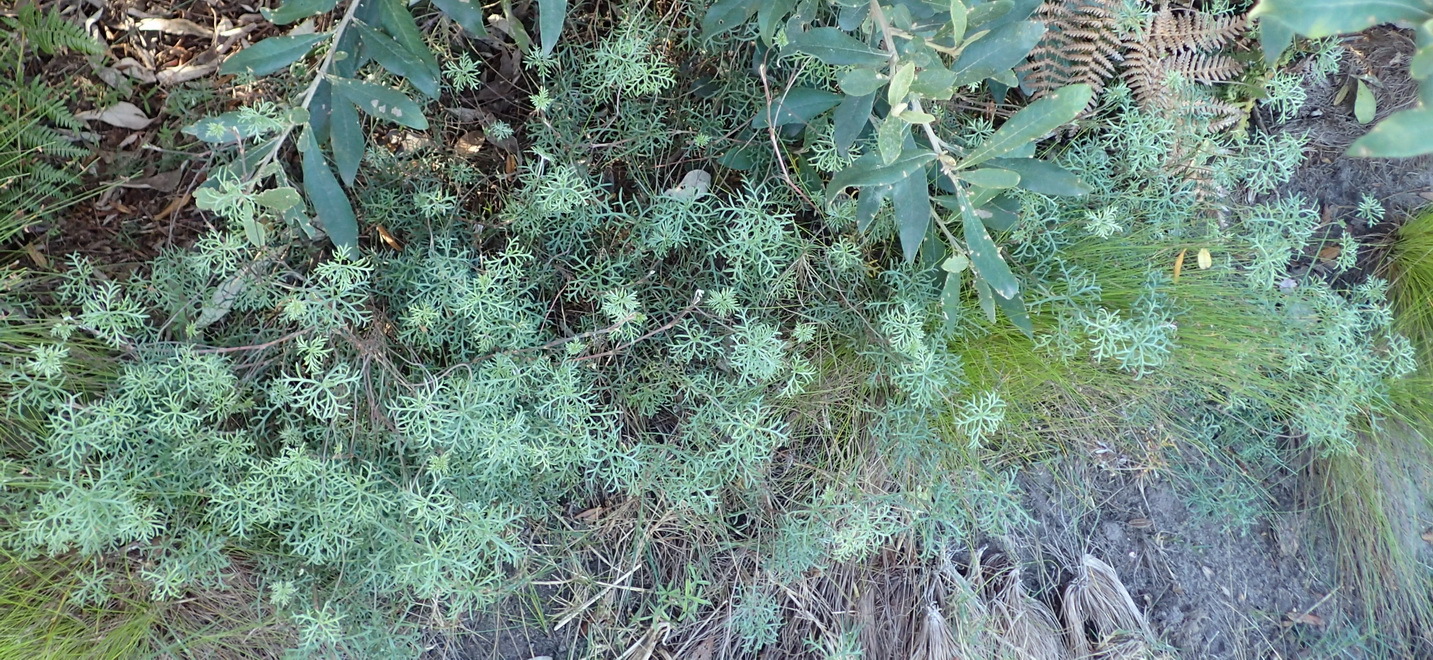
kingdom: Plantae
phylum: Tracheophyta
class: Magnoliopsida
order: Geraniales
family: Geraniaceae
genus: Geranium
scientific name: Geranium incanum
